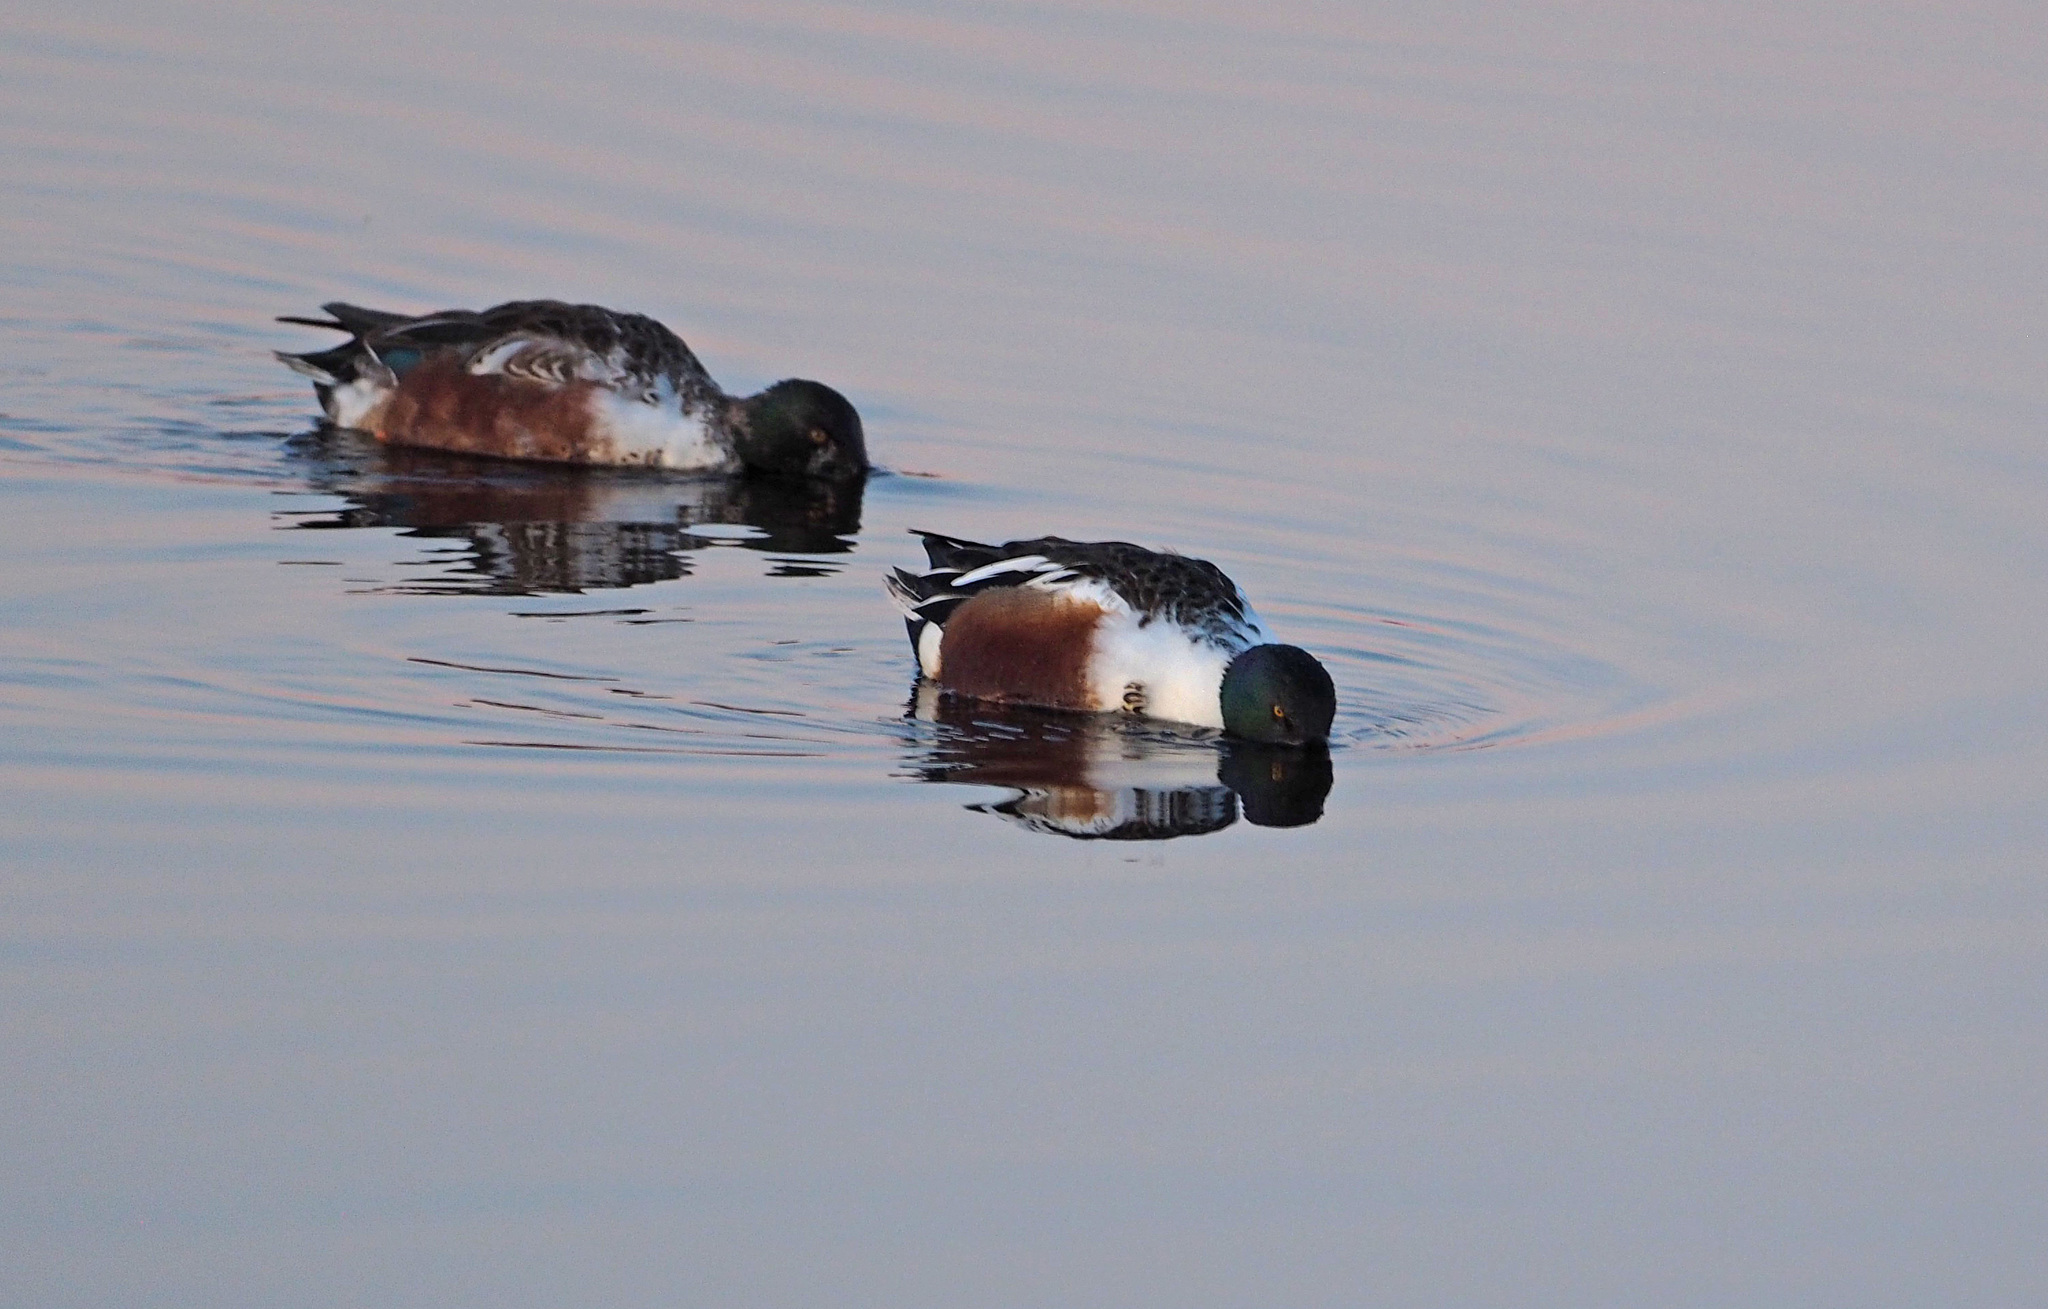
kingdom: Animalia
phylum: Chordata
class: Aves
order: Anseriformes
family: Anatidae
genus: Spatula
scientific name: Spatula clypeata
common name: Northern shoveler
